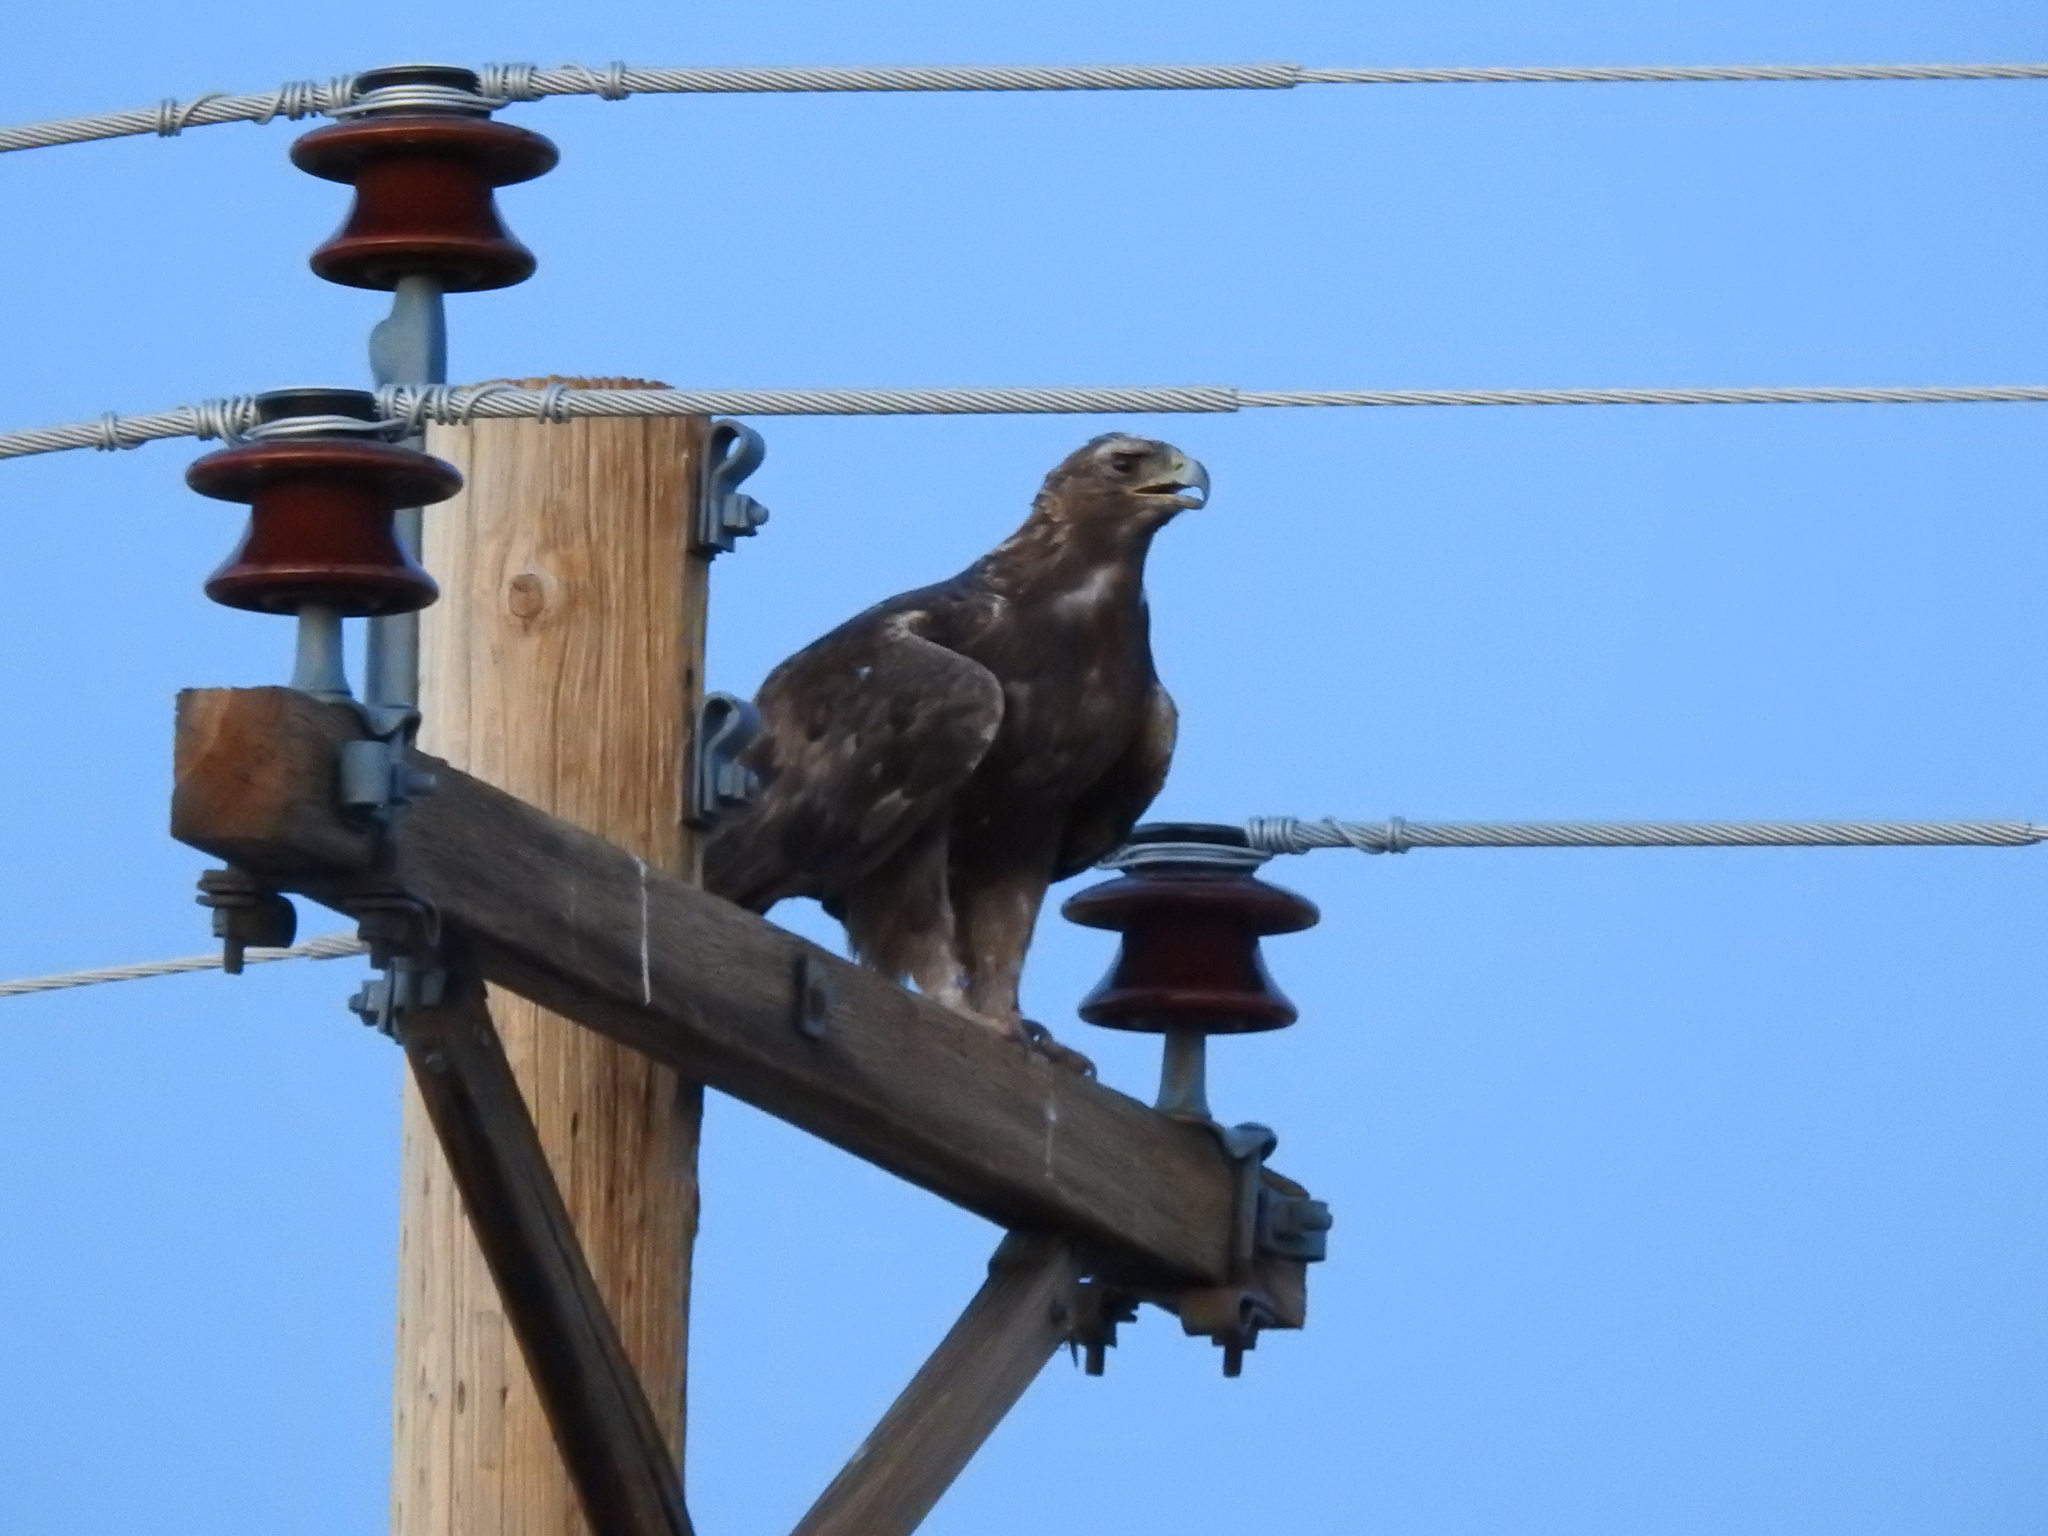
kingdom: Animalia
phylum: Chordata
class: Aves
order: Accipitriformes
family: Accipitridae
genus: Aquila
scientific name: Aquila chrysaetos
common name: Golden eagle
